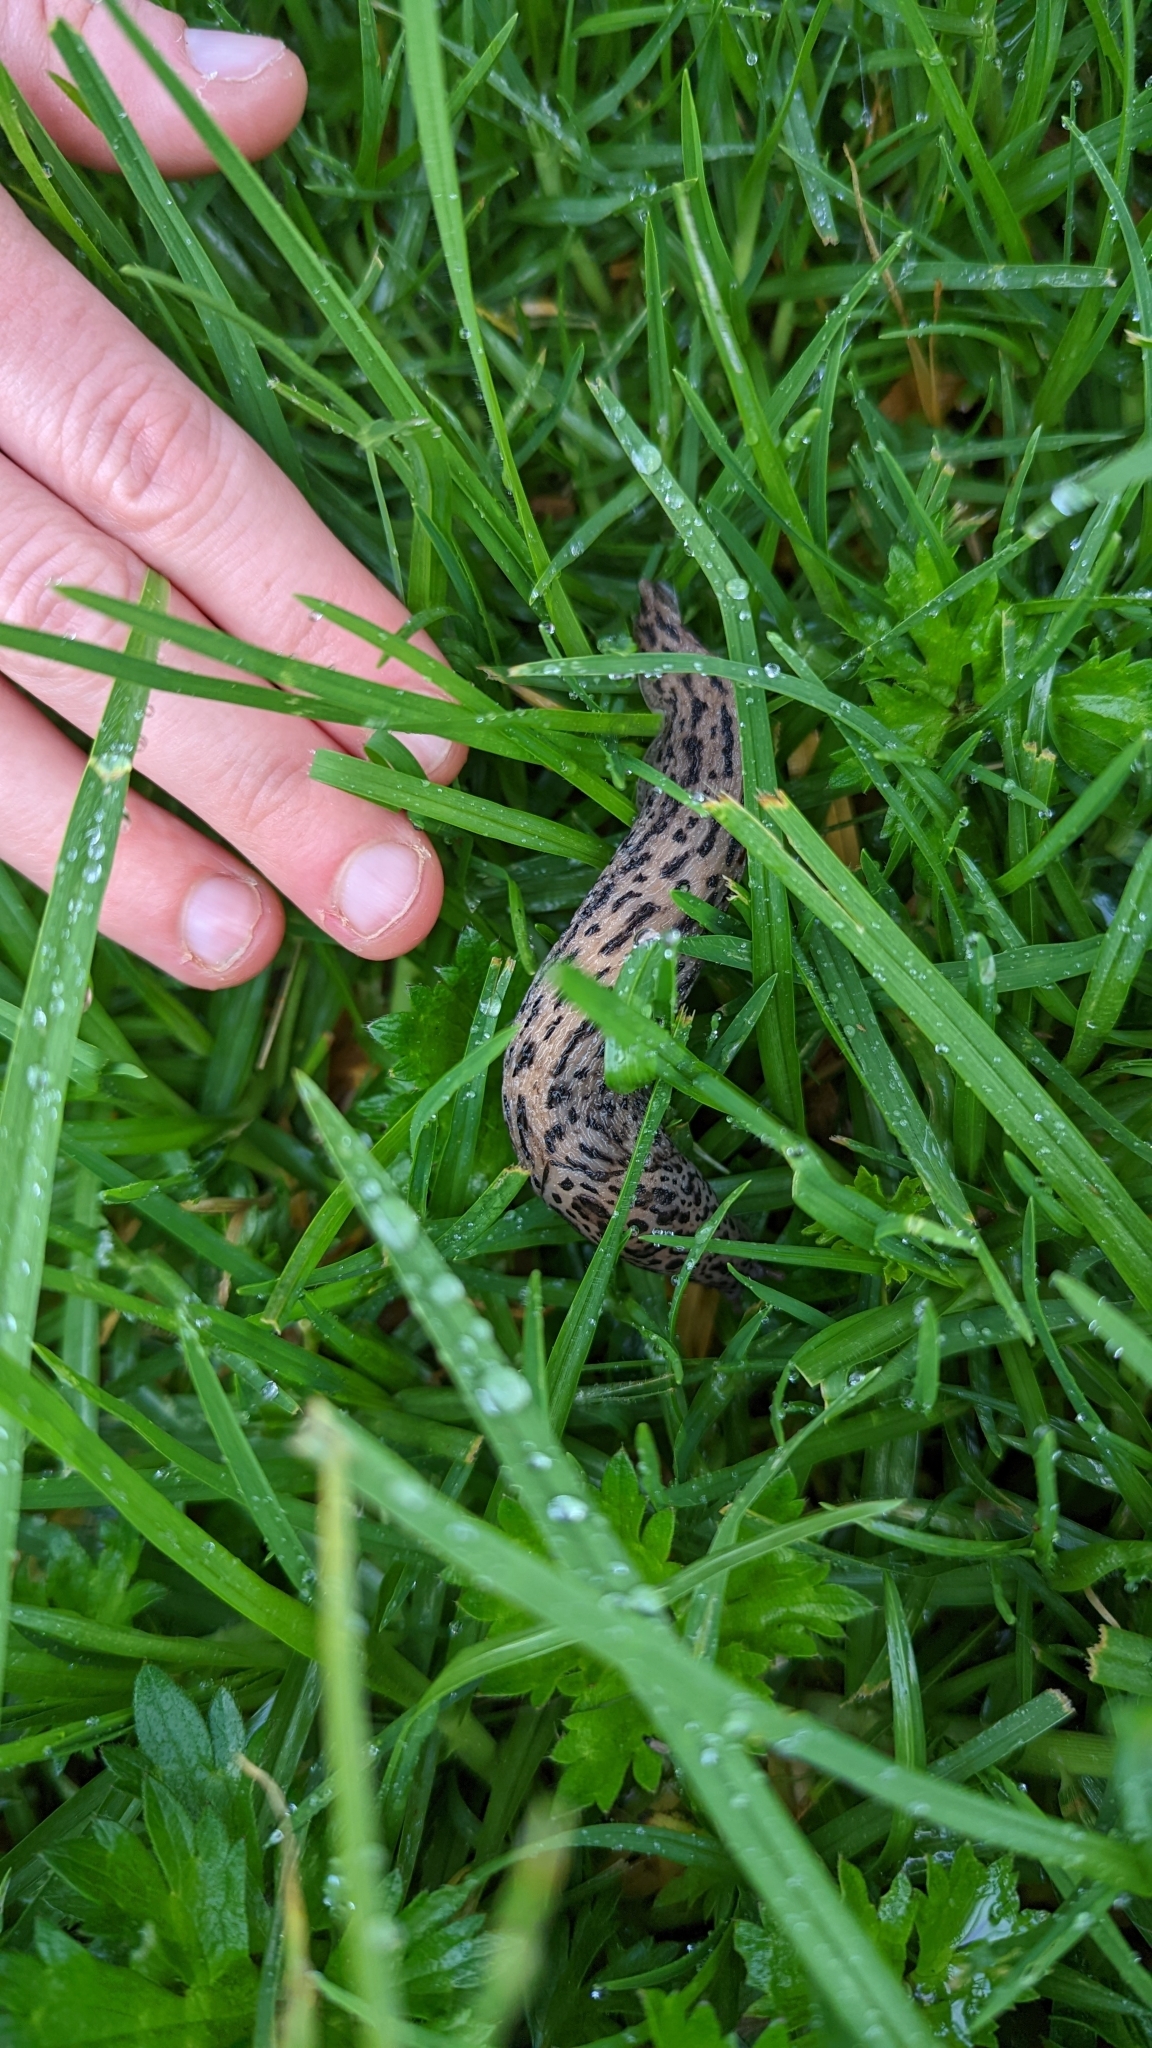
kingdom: Animalia
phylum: Mollusca
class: Gastropoda
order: Stylommatophora
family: Limacidae
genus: Limax
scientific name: Limax maximus
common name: Great grey slug
